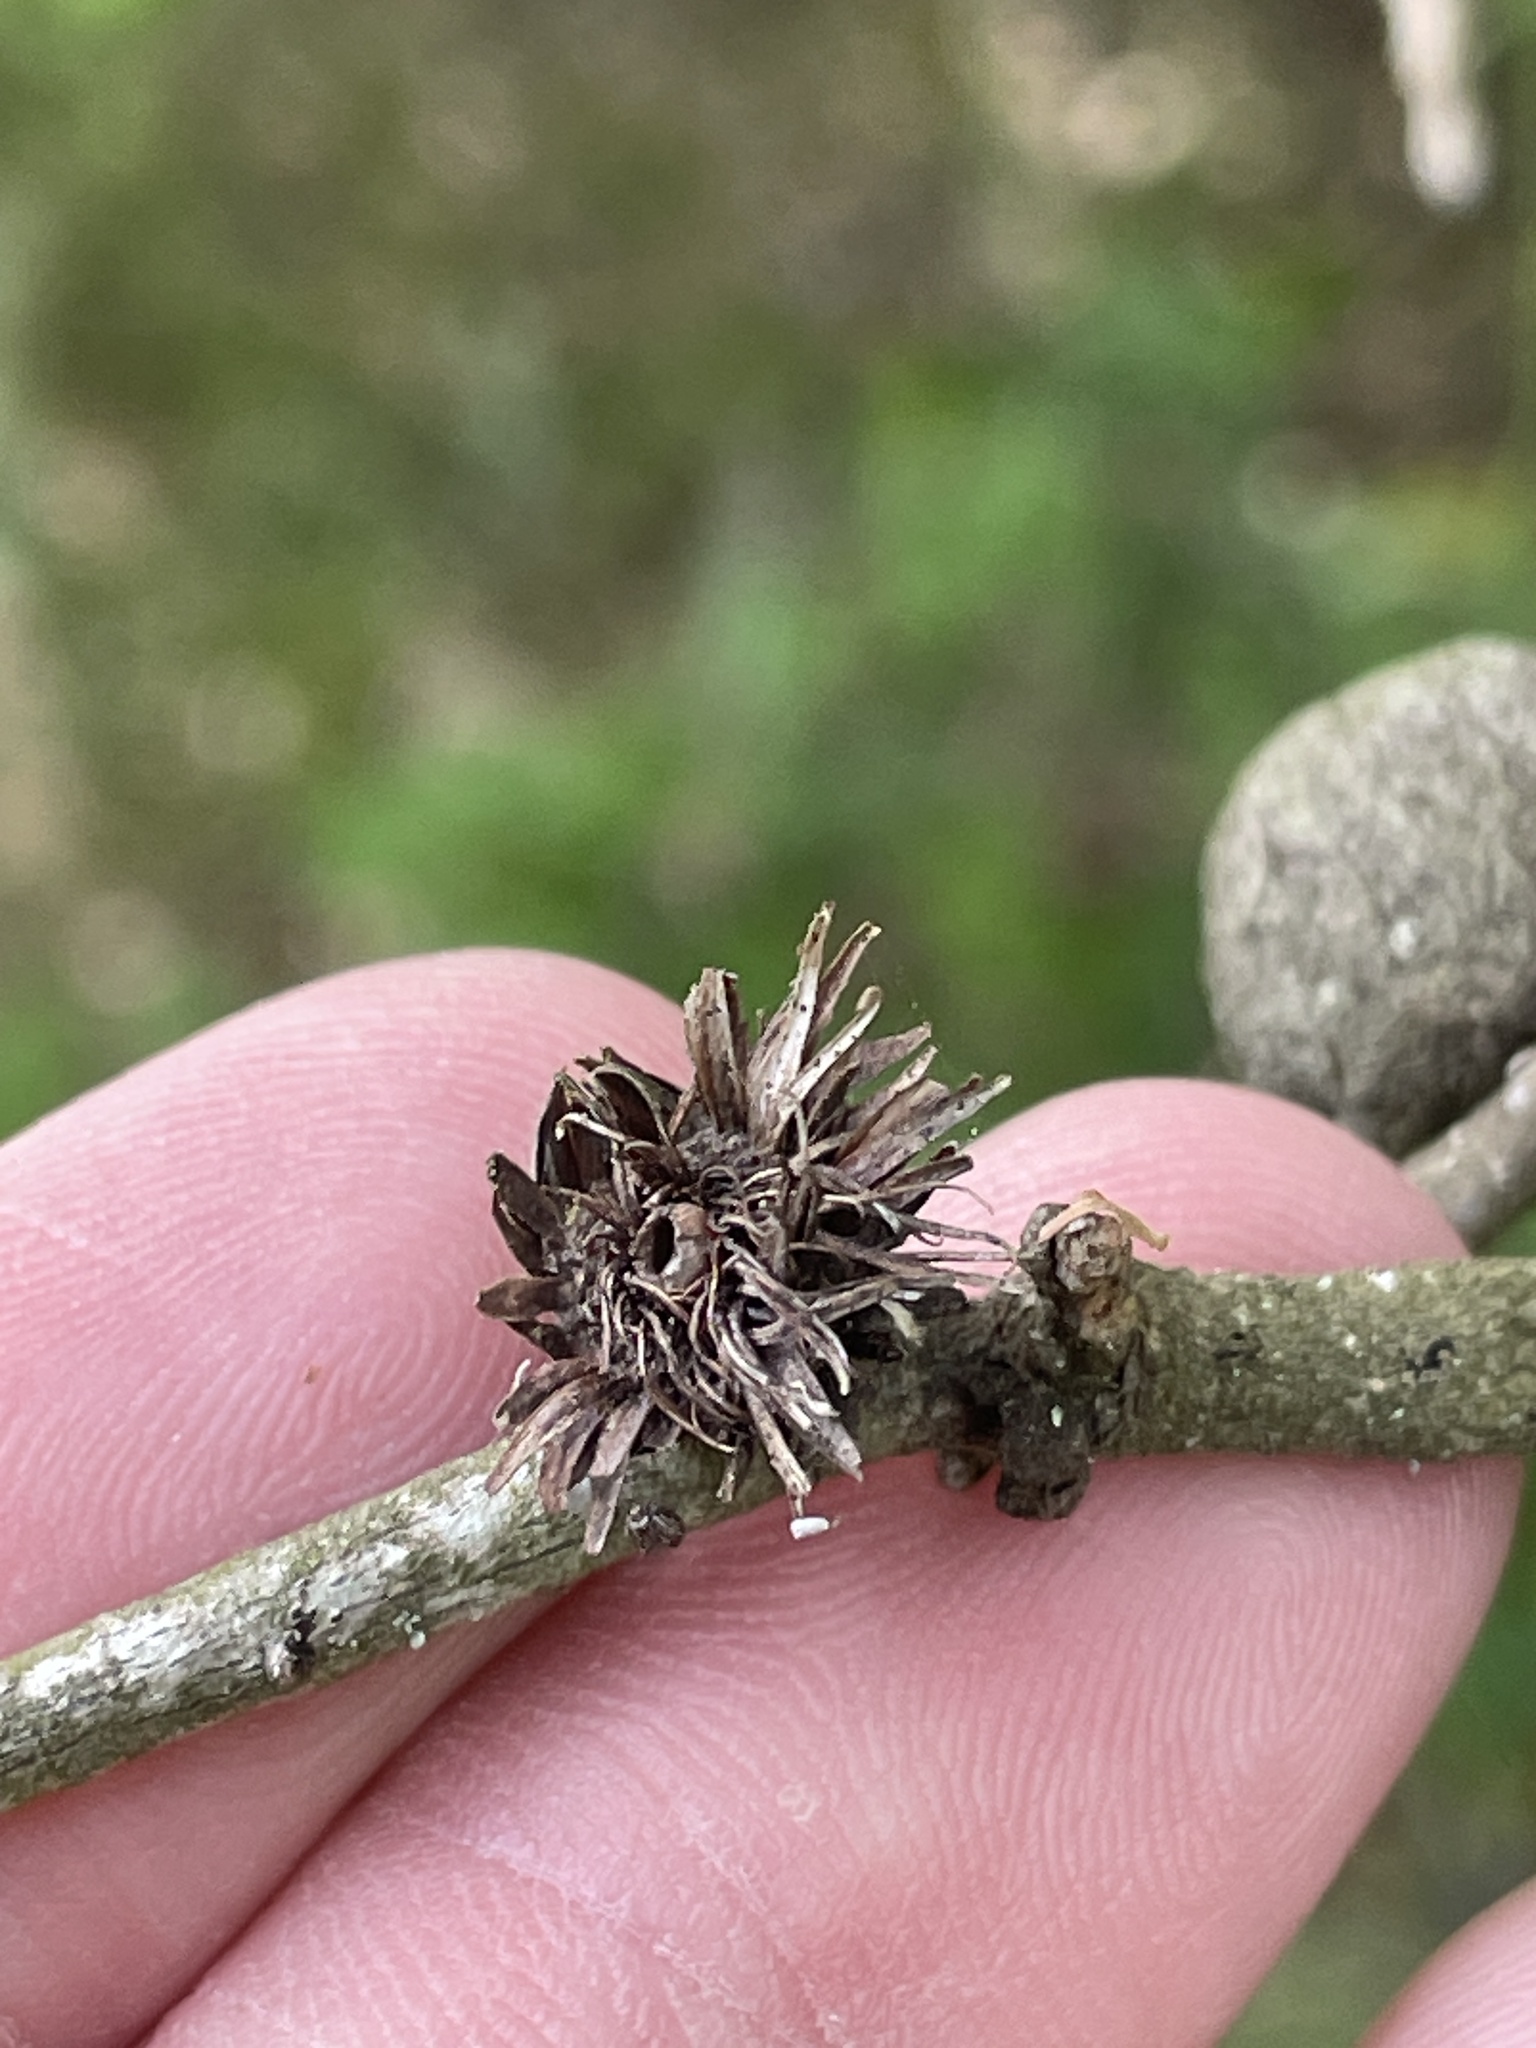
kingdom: Animalia
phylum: Arthropoda
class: Insecta
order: Hymenoptera
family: Cynipidae
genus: Andricus
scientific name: Andricus quercusfoliatus
